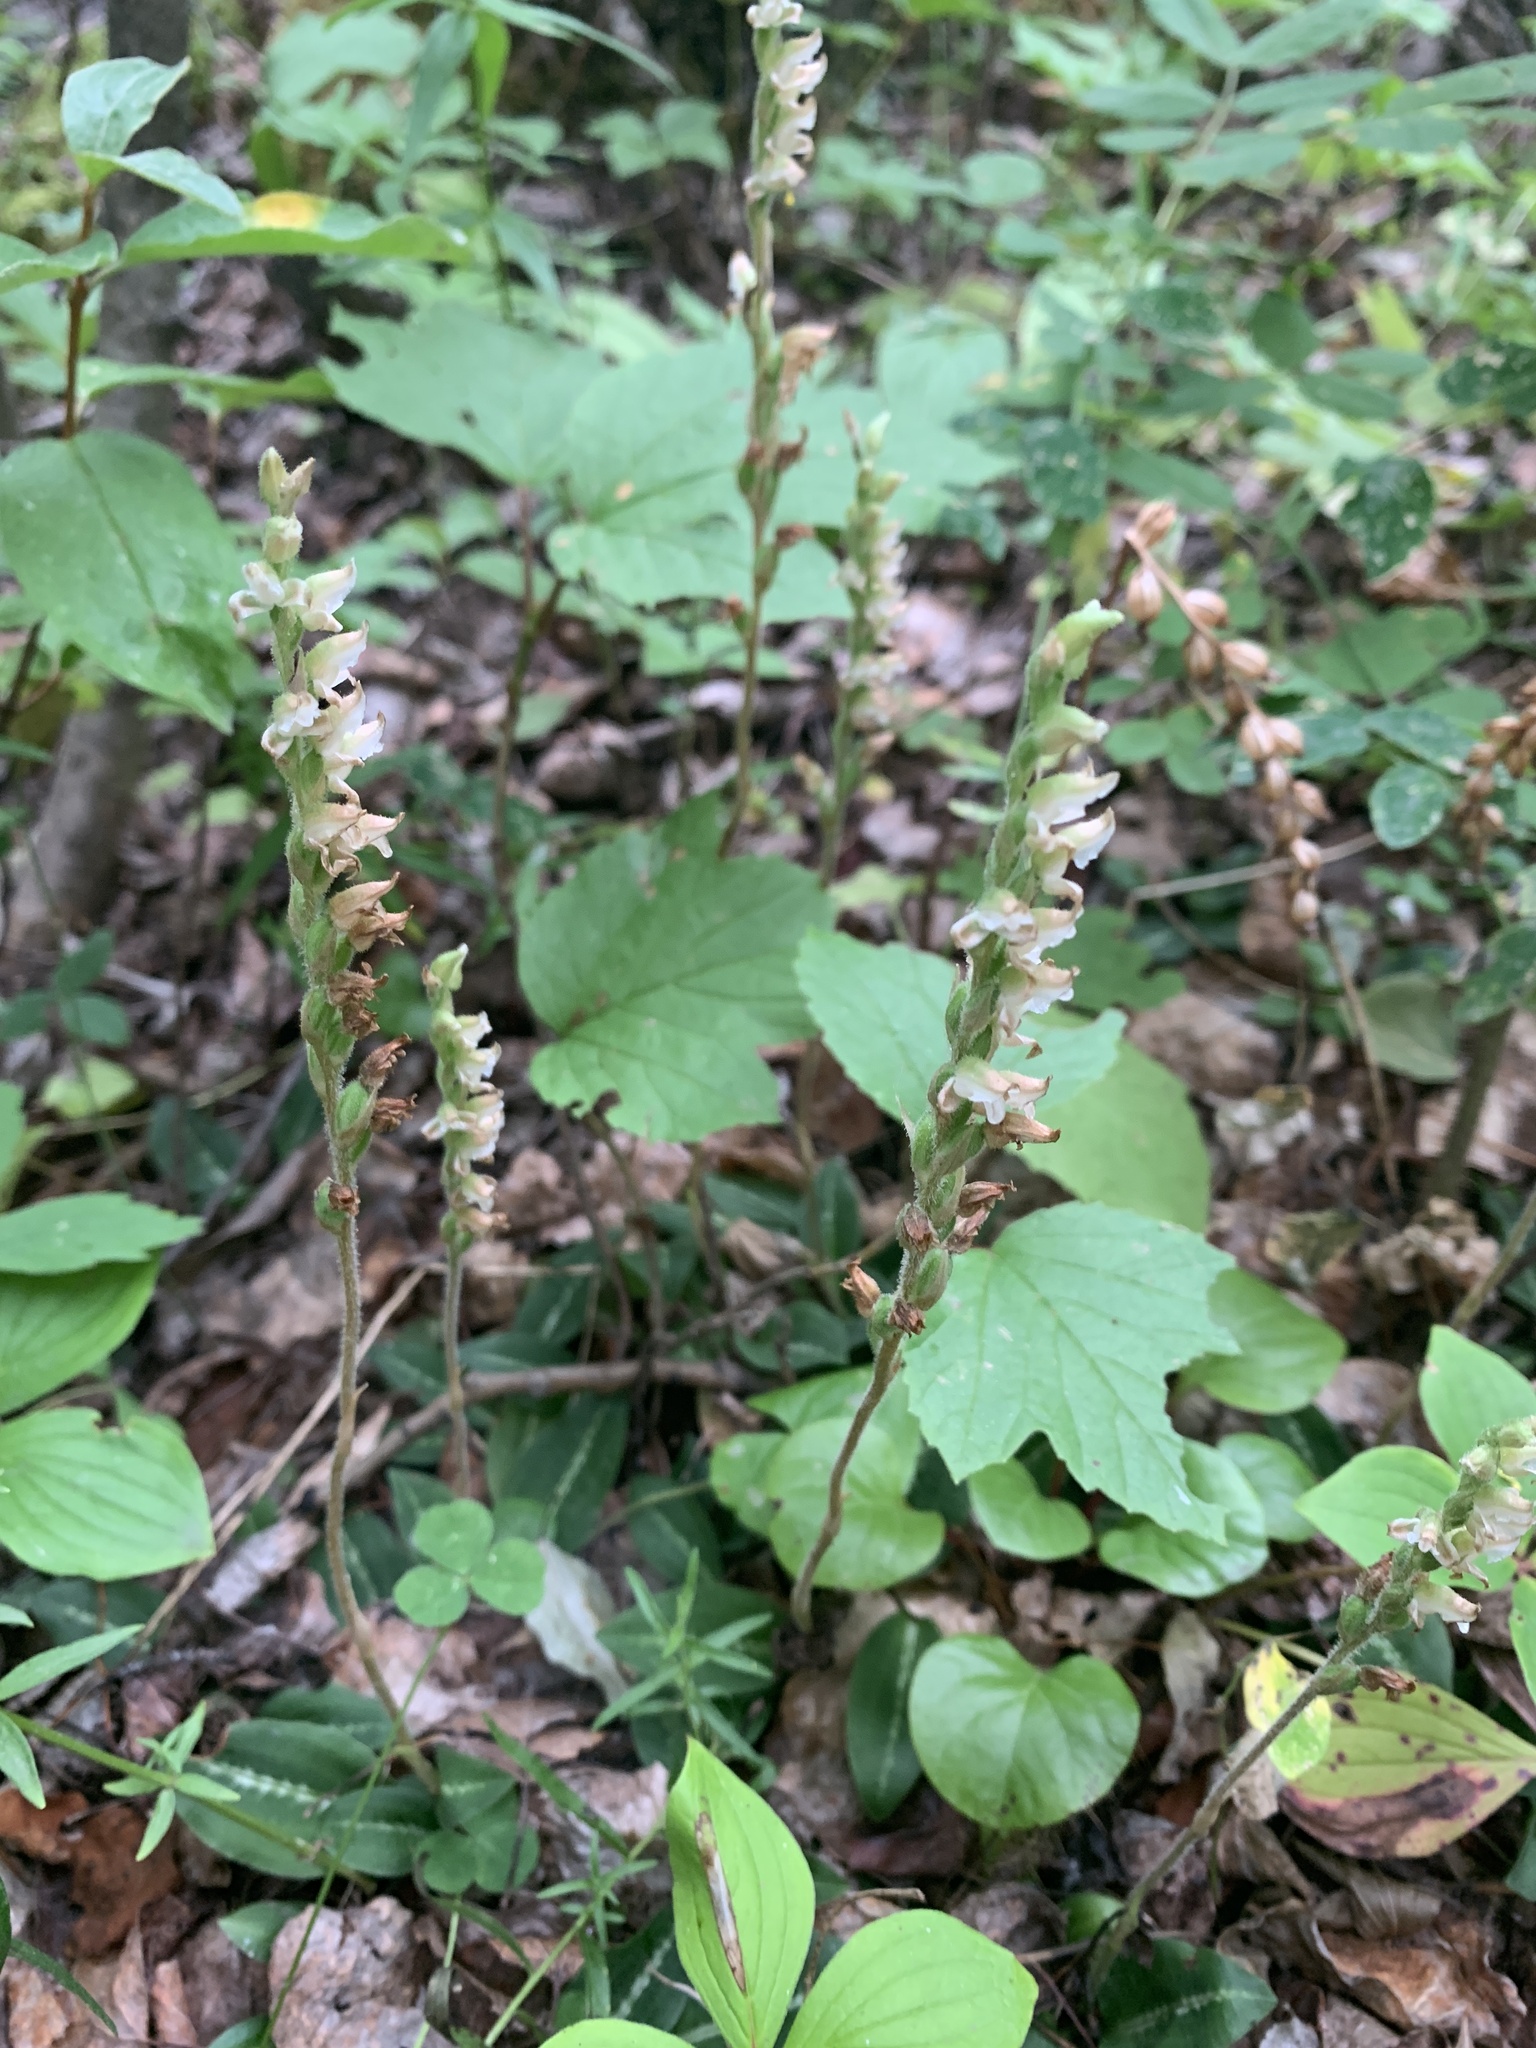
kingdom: Plantae
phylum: Tracheophyta
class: Liliopsida
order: Asparagales
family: Orchidaceae
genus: Goodyera
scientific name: Goodyera oblongifolia
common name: Giant rattlesnake-plantain
